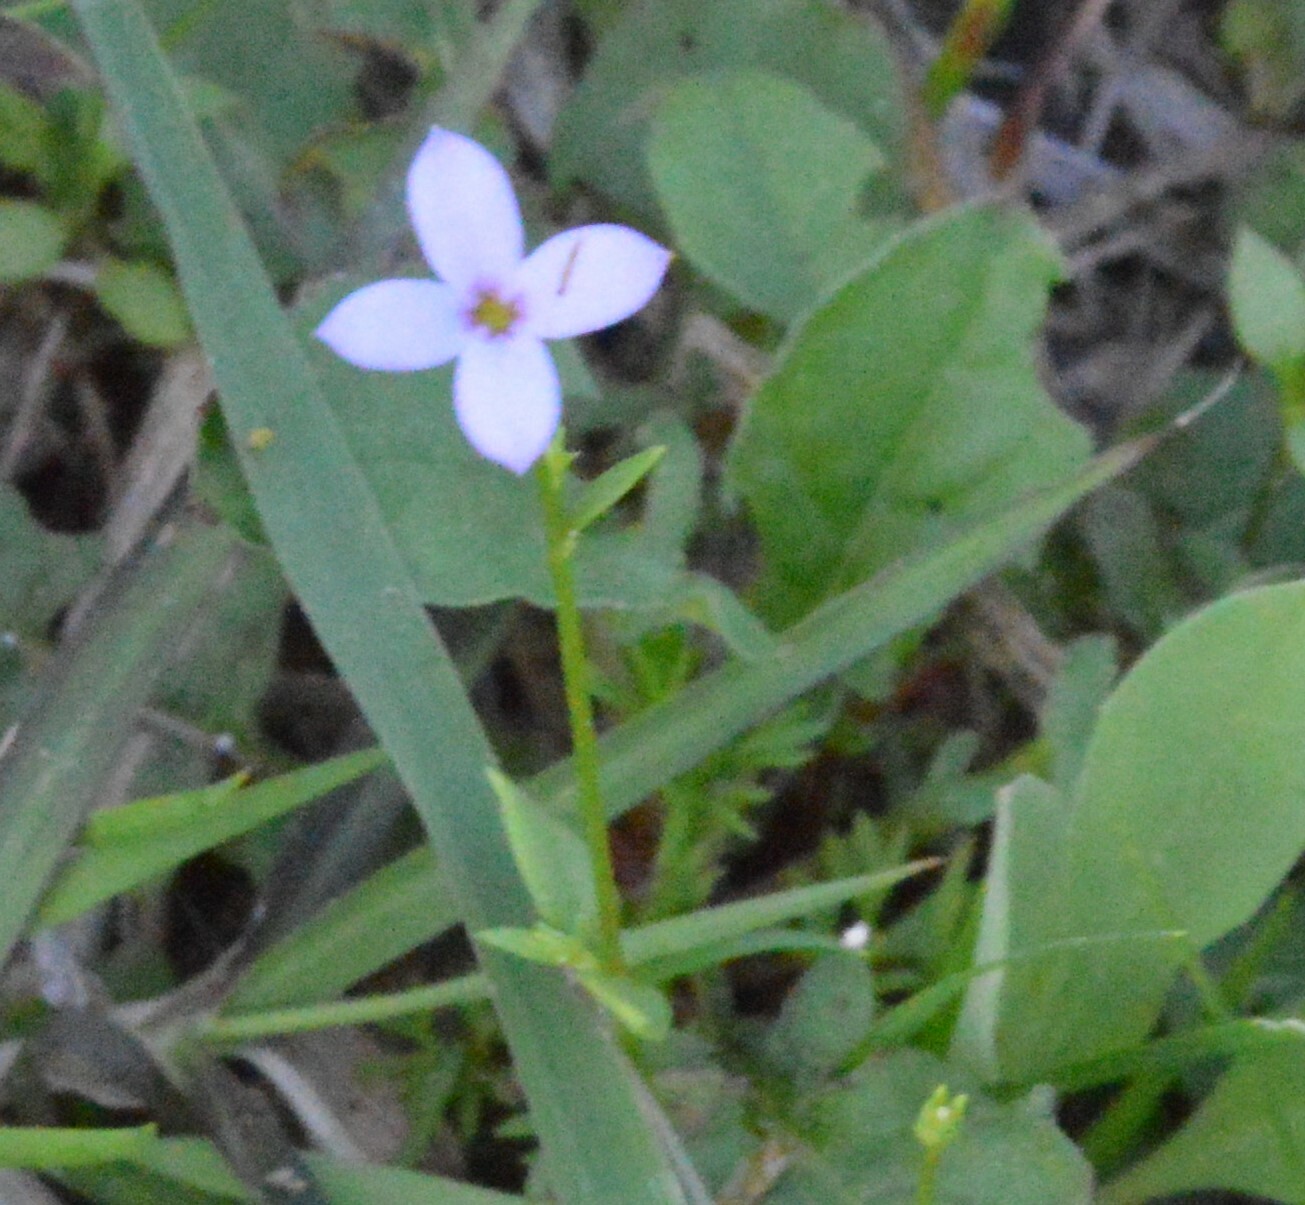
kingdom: Plantae
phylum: Tracheophyta
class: Magnoliopsida
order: Gentianales
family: Rubiaceae
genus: Houstonia
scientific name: Houstonia pusilla
